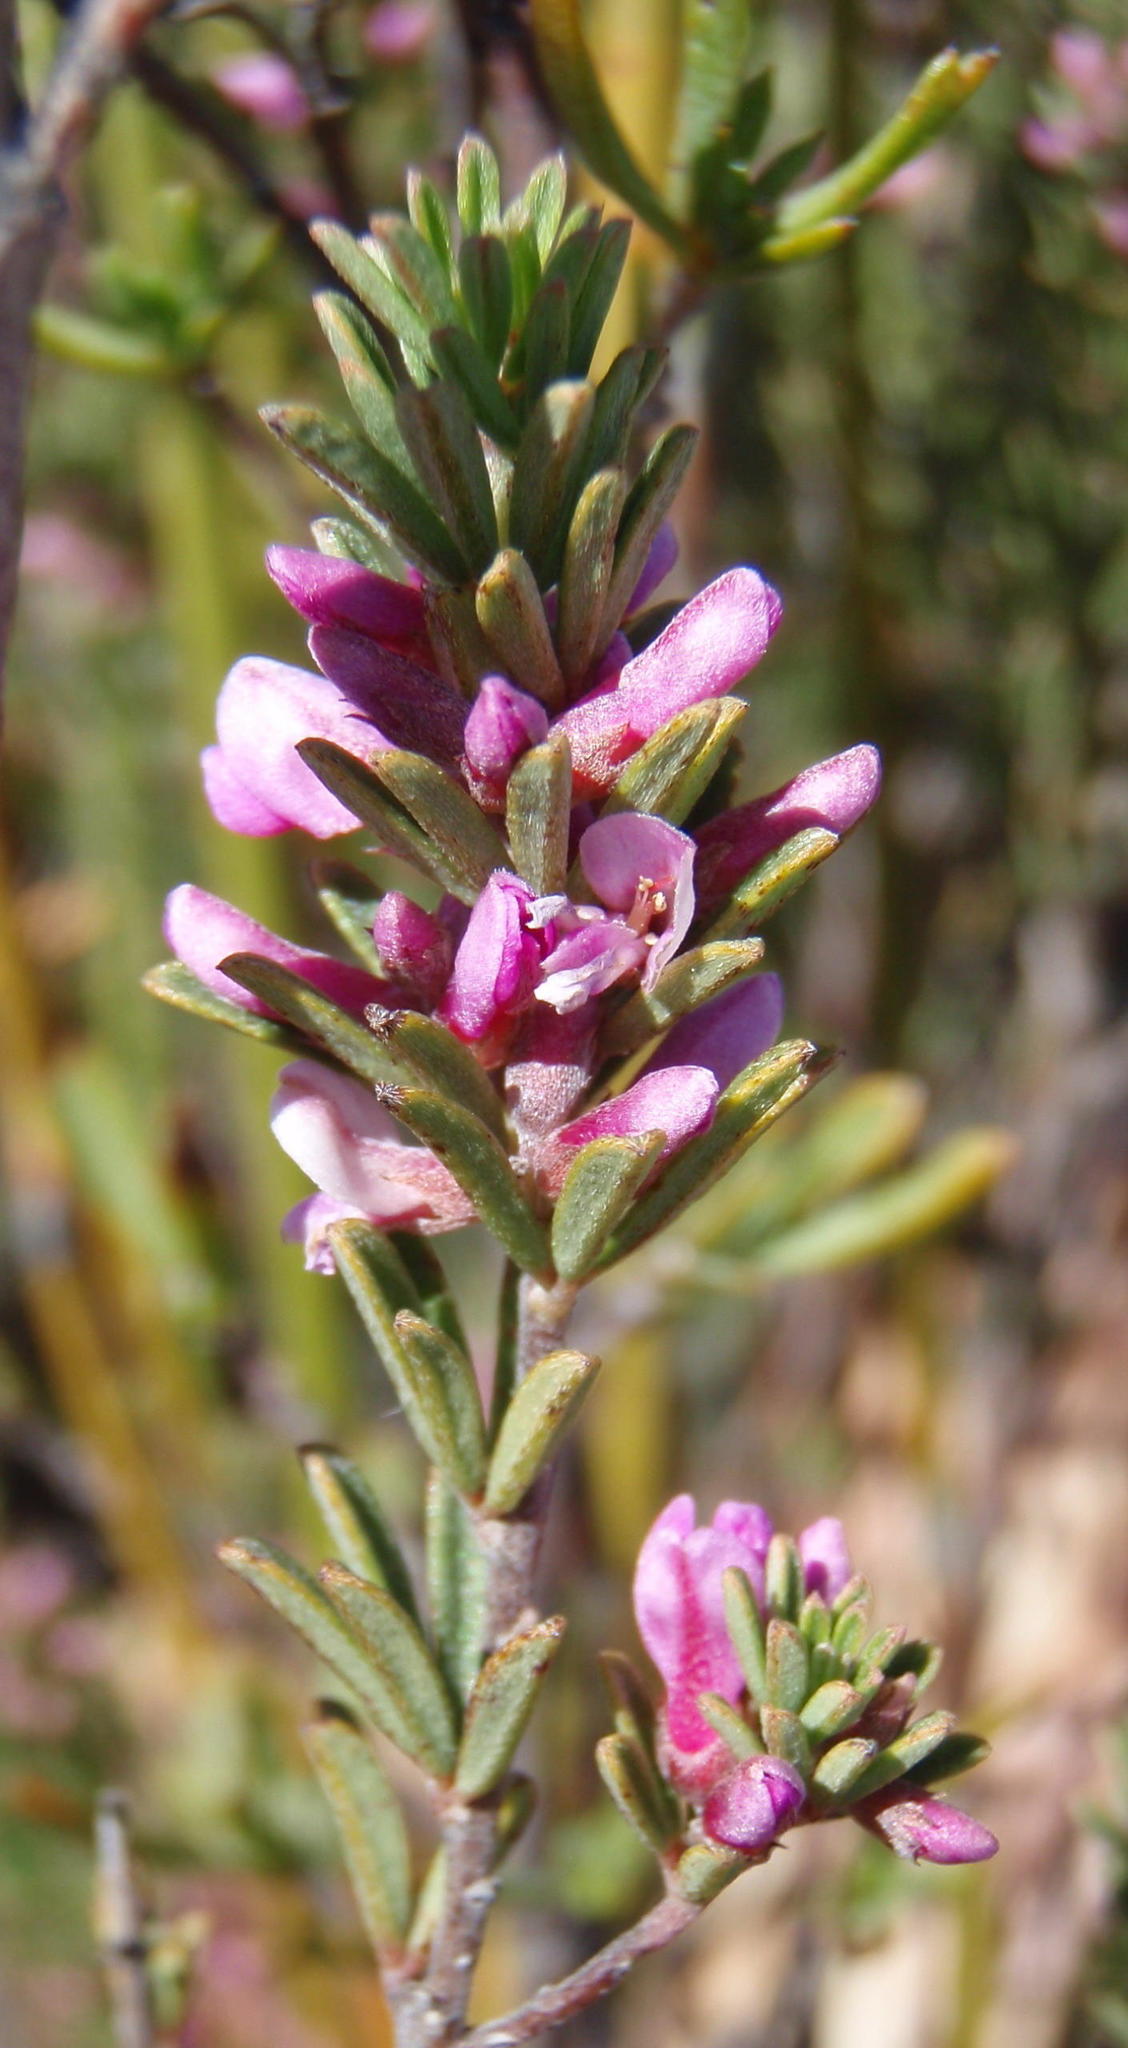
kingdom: Plantae
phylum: Tracheophyta
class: Magnoliopsida
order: Fabales
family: Fabaceae
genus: Indigofera
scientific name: Indigofera pappei
